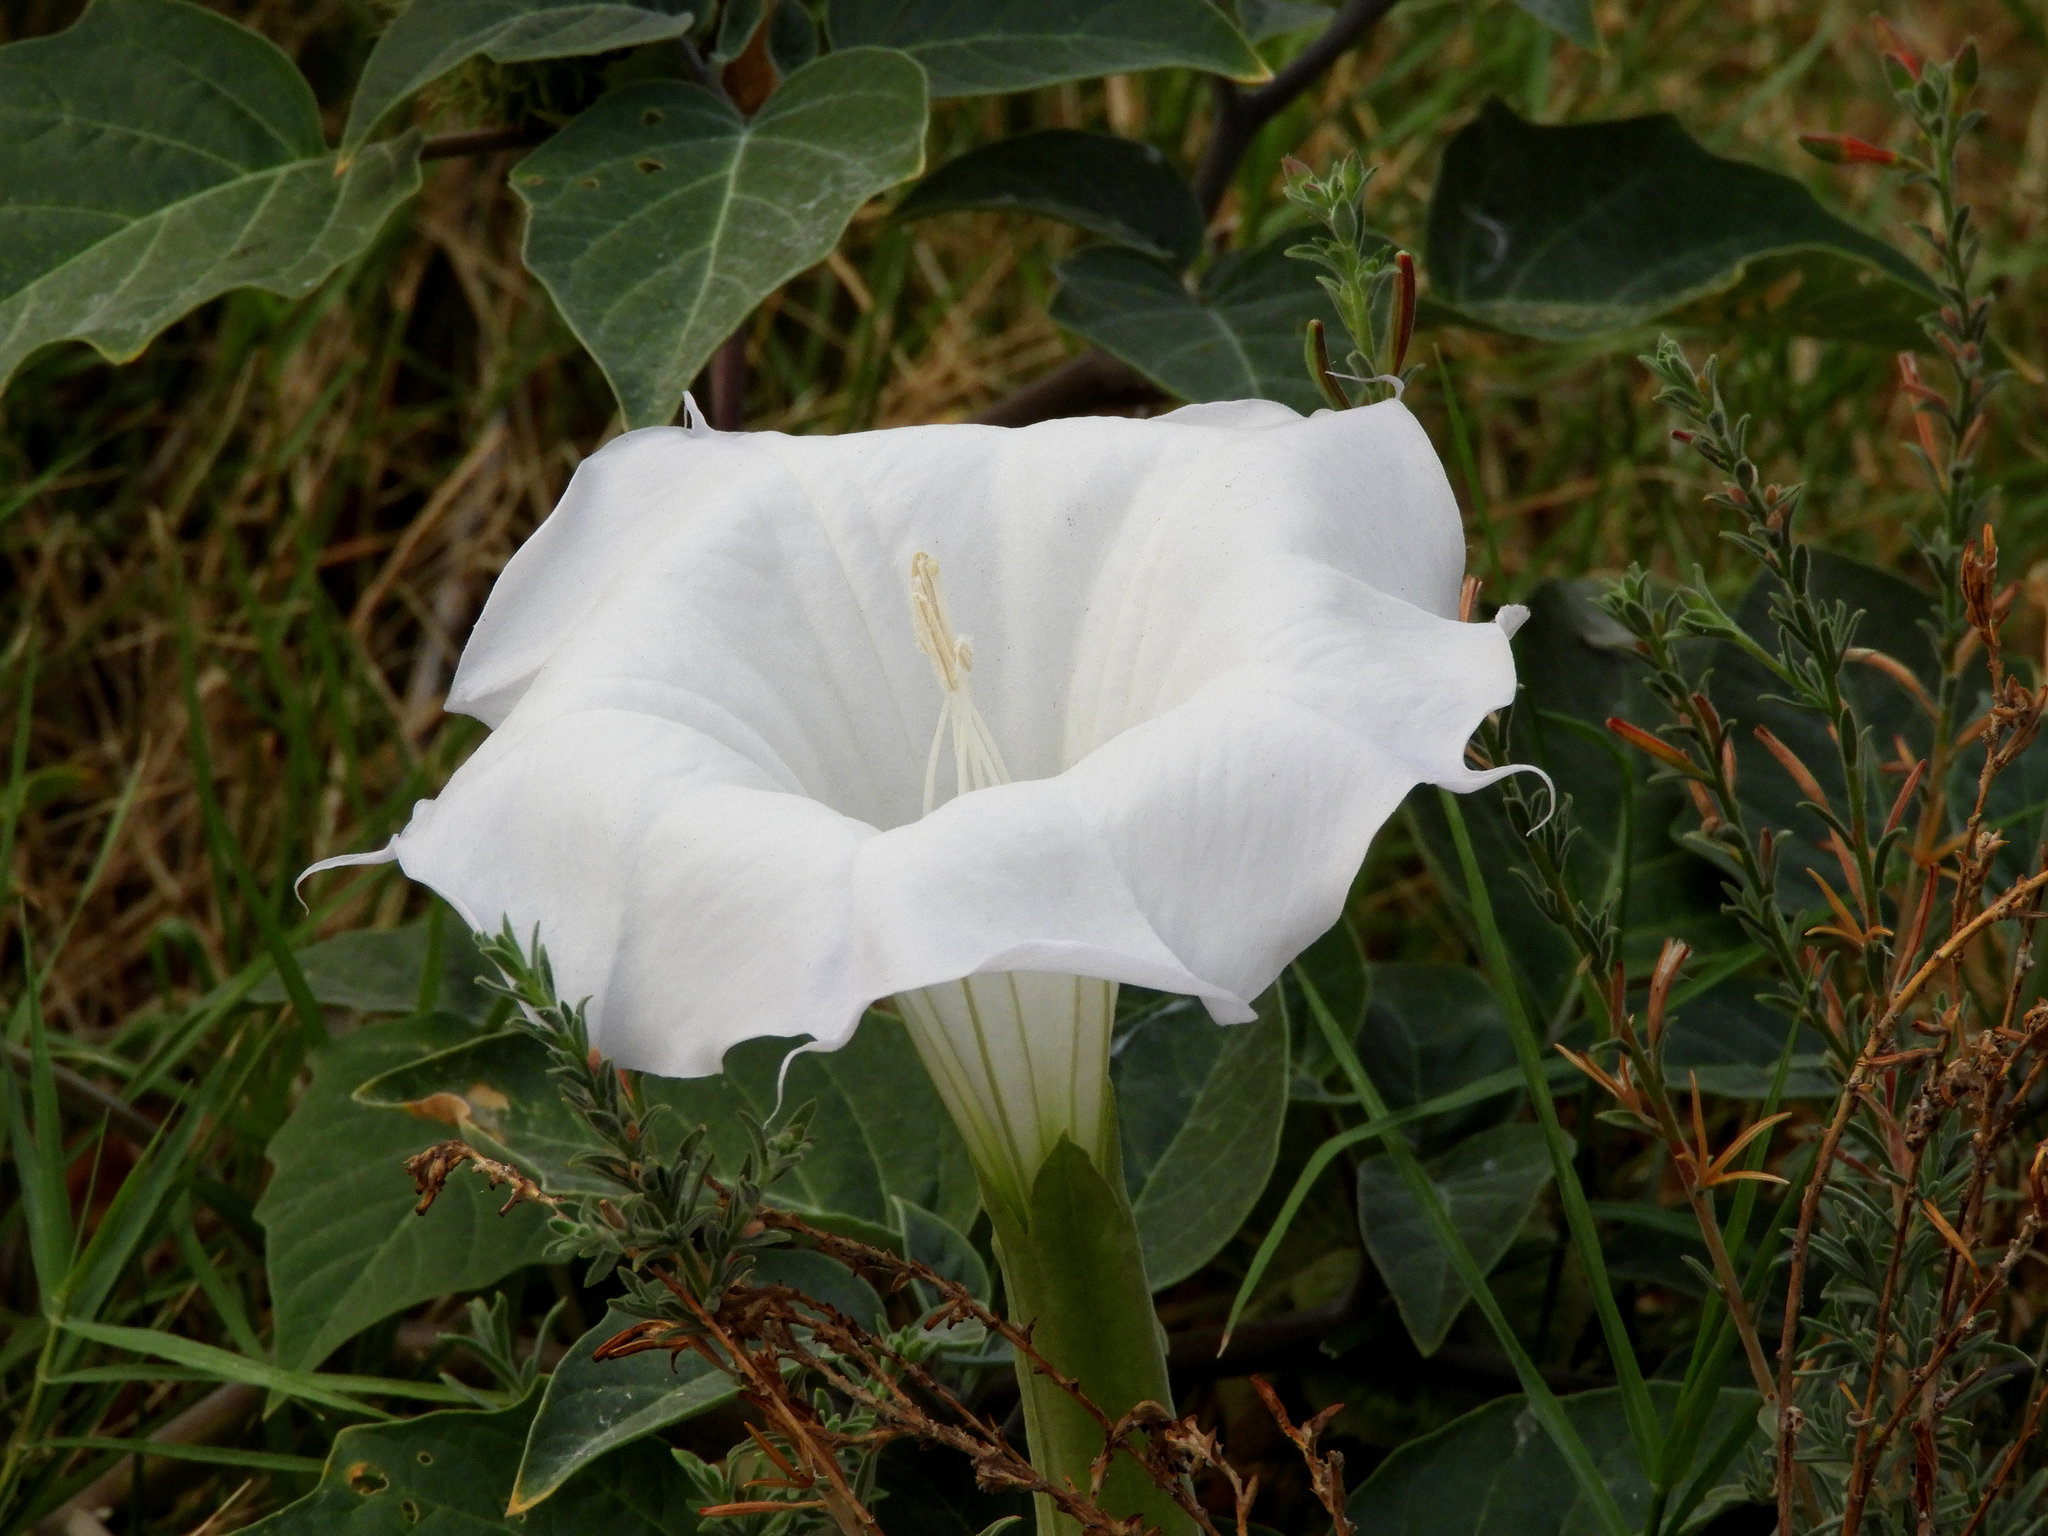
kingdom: Plantae
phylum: Tracheophyta
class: Magnoliopsida
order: Solanales
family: Solanaceae
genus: Datura
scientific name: Datura wrightii
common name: Sacred thorn-apple
